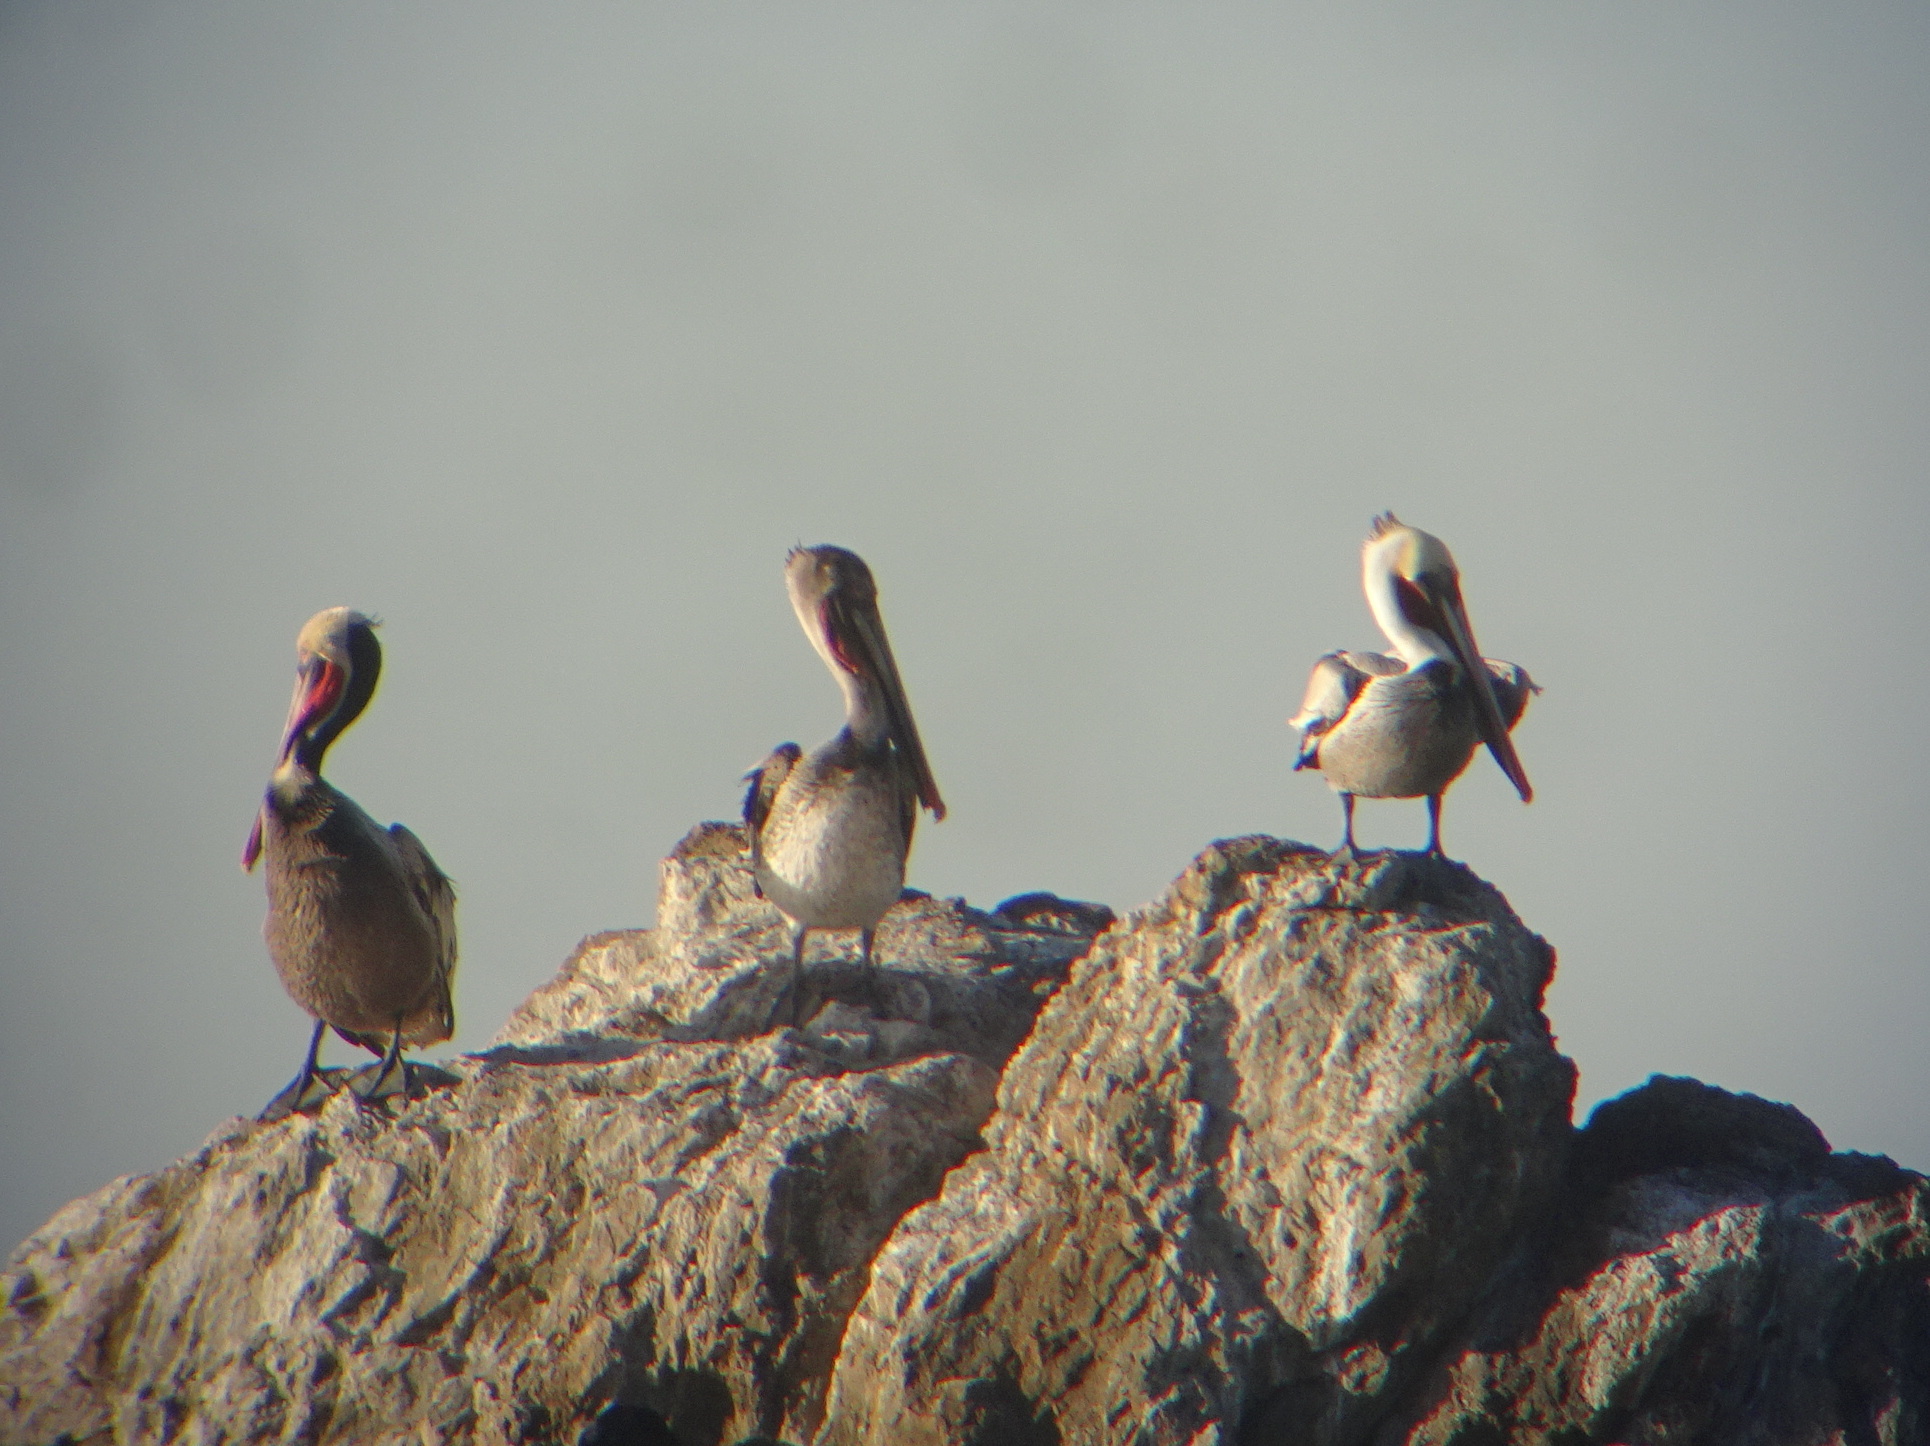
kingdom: Animalia
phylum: Chordata
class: Aves
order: Pelecaniformes
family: Pelecanidae
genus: Pelecanus
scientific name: Pelecanus occidentalis
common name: Brown pelican
